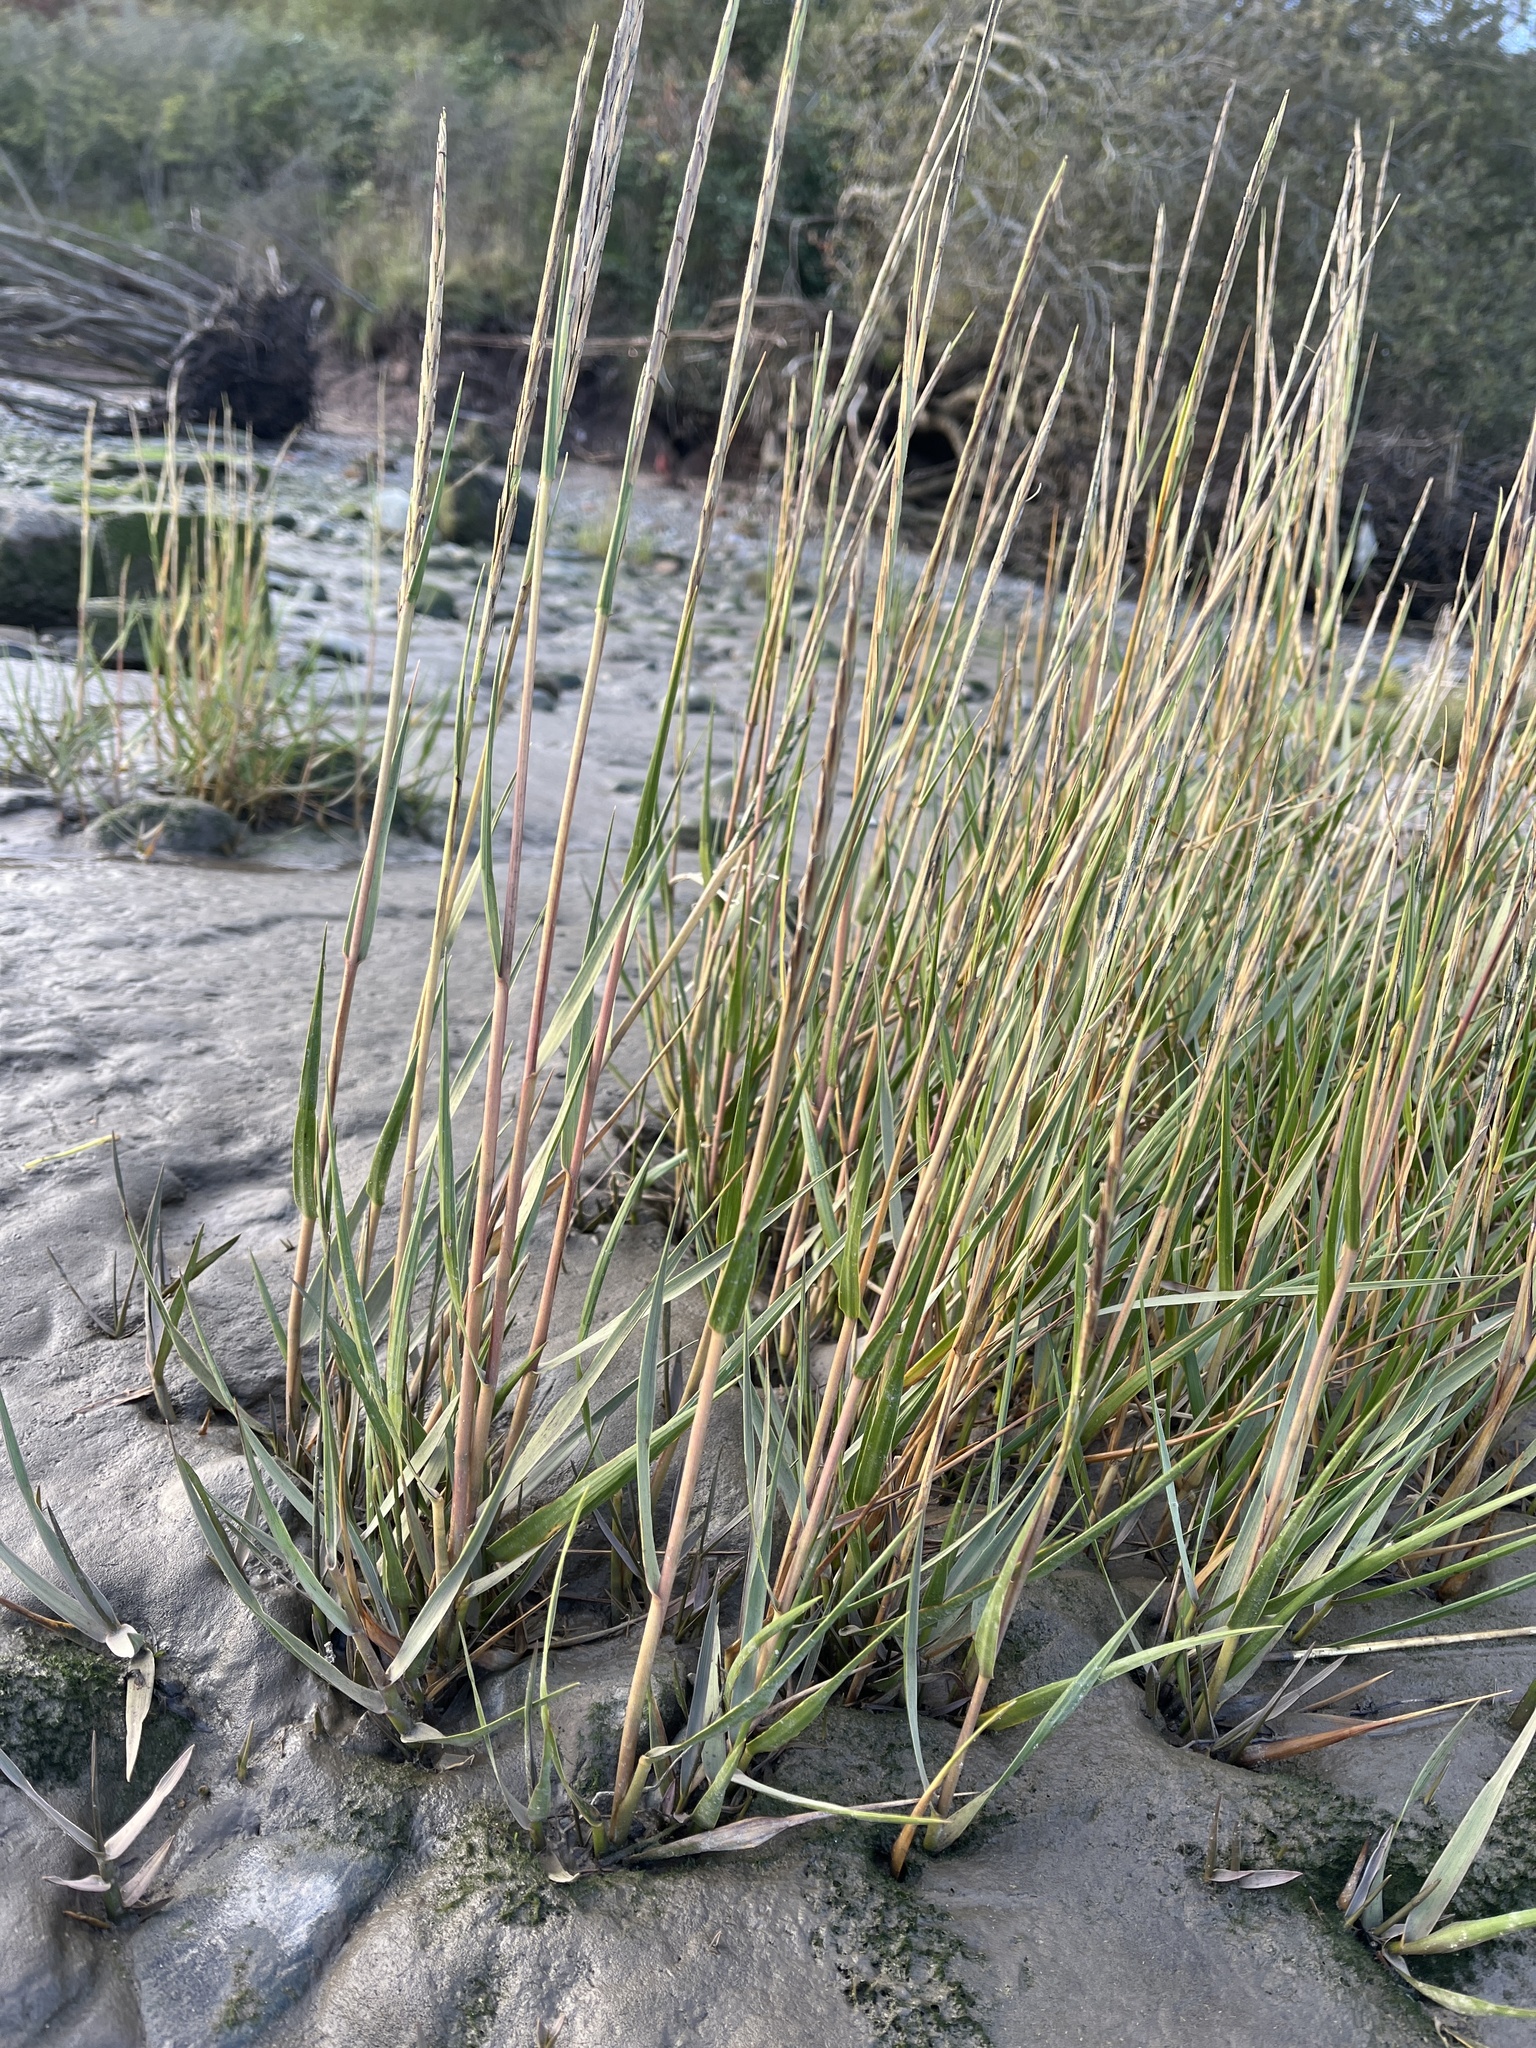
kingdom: Plantae
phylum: Tracheophyta
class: Liliopsida
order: Poales
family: Poaceae
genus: Sporobolus
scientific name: Sporobolus anglicus
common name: English cordgrass
